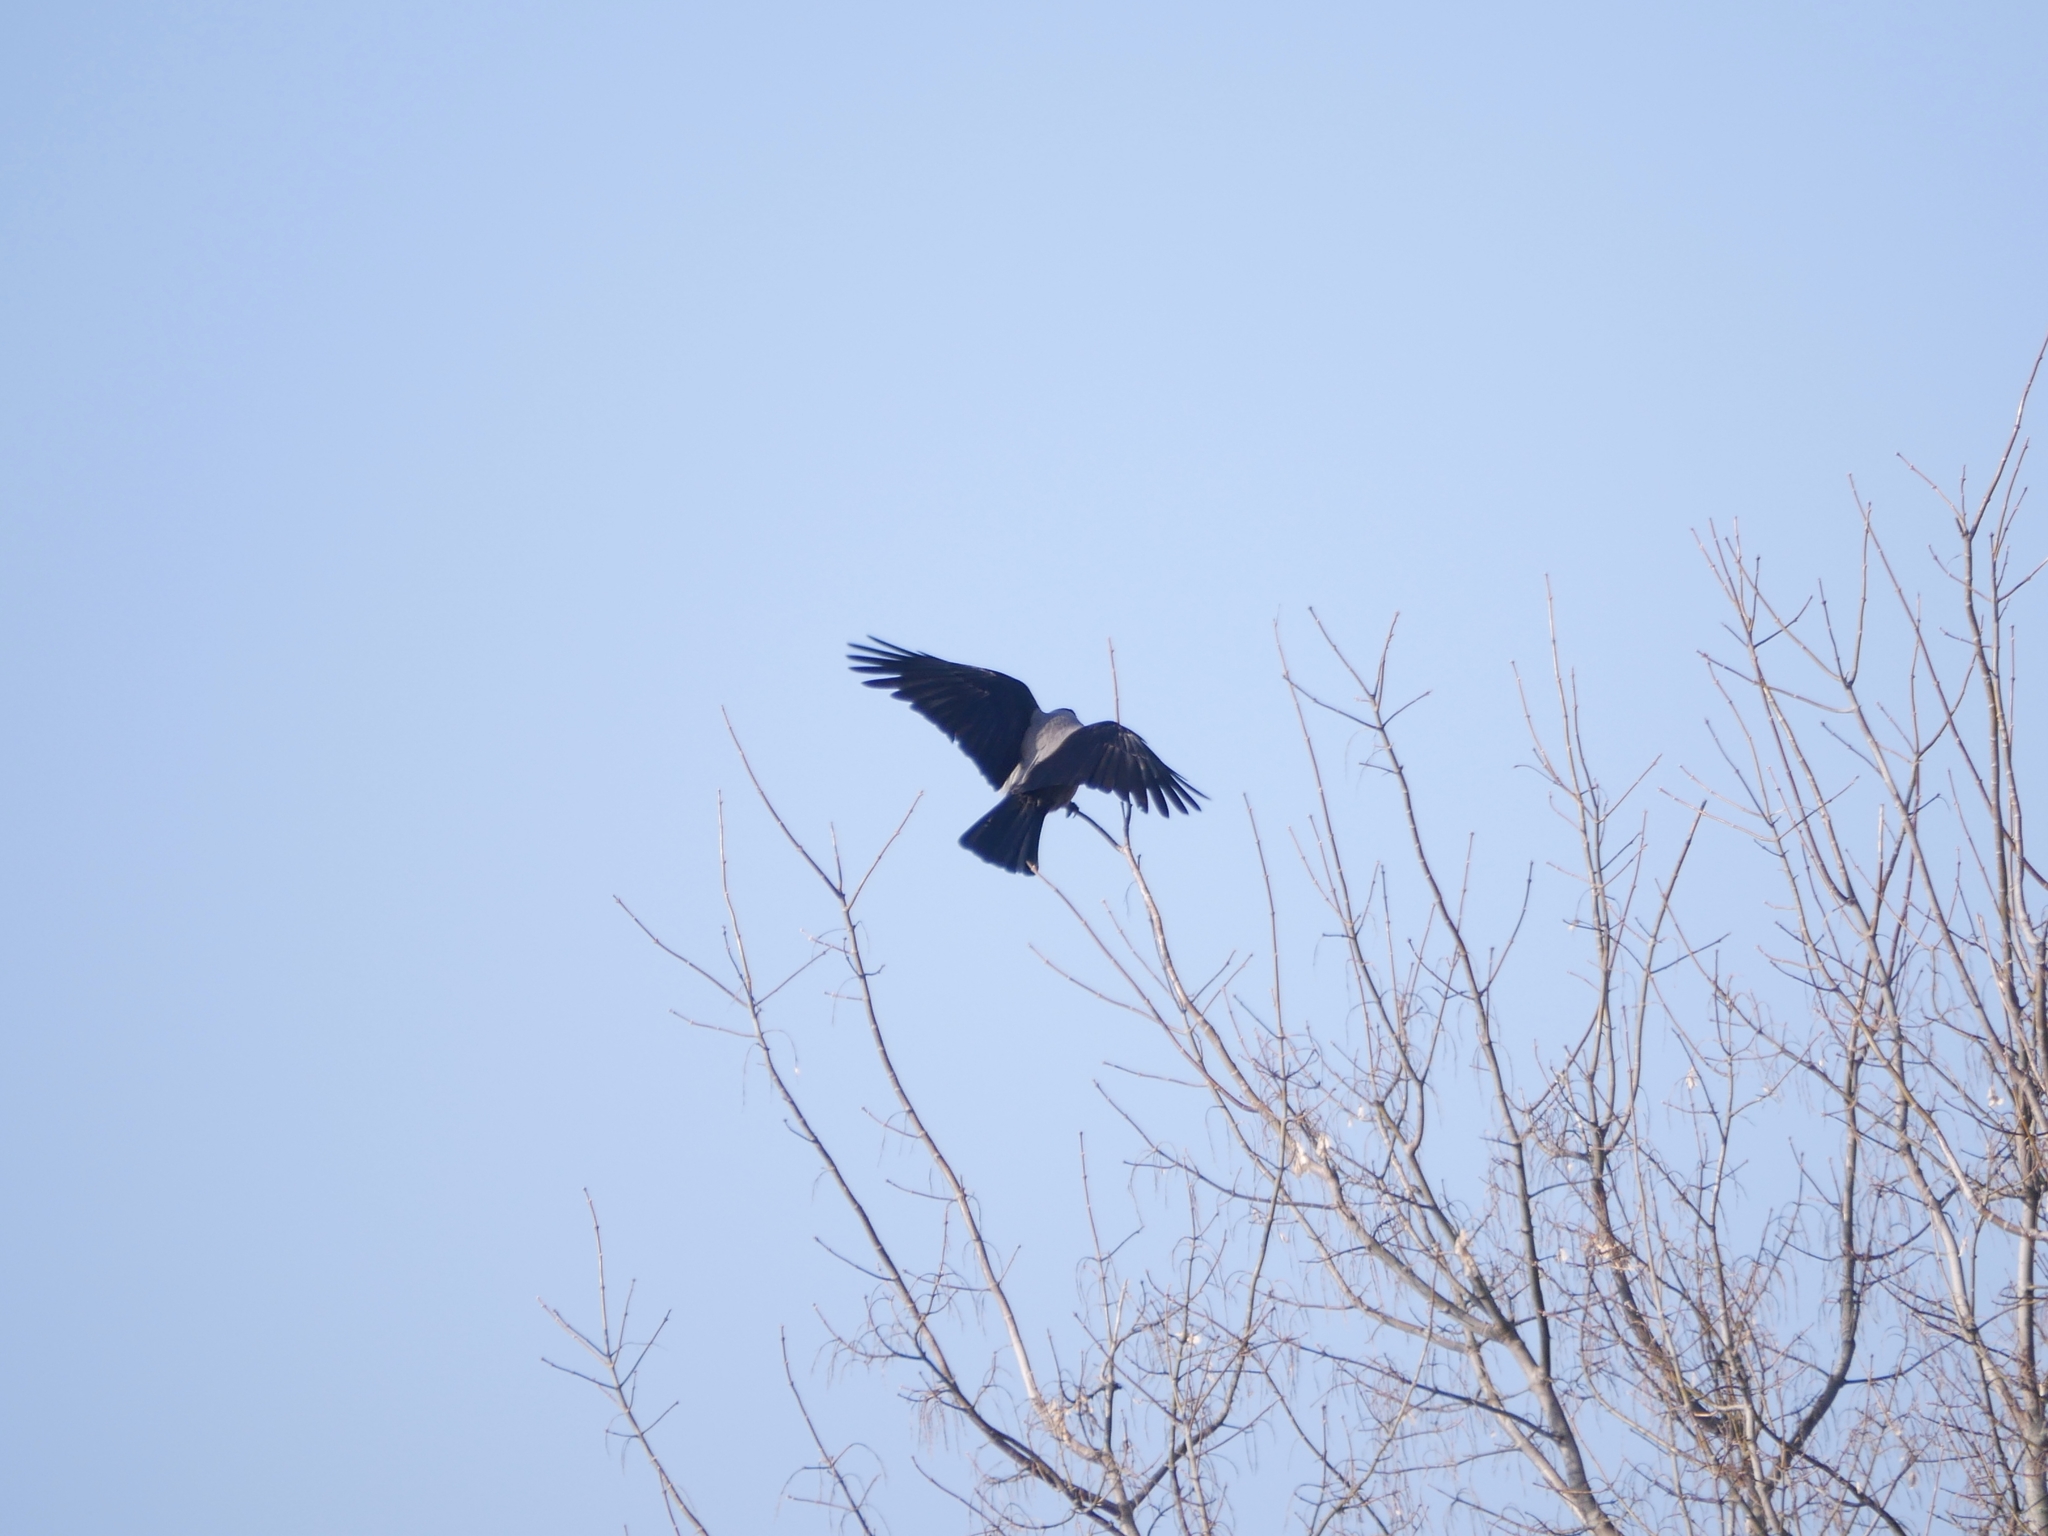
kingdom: Animalia
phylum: Chordata
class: Aves
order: Passeriformes
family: Corvidae
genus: Corvus
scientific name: Corvus cornix
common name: Hooded crow
